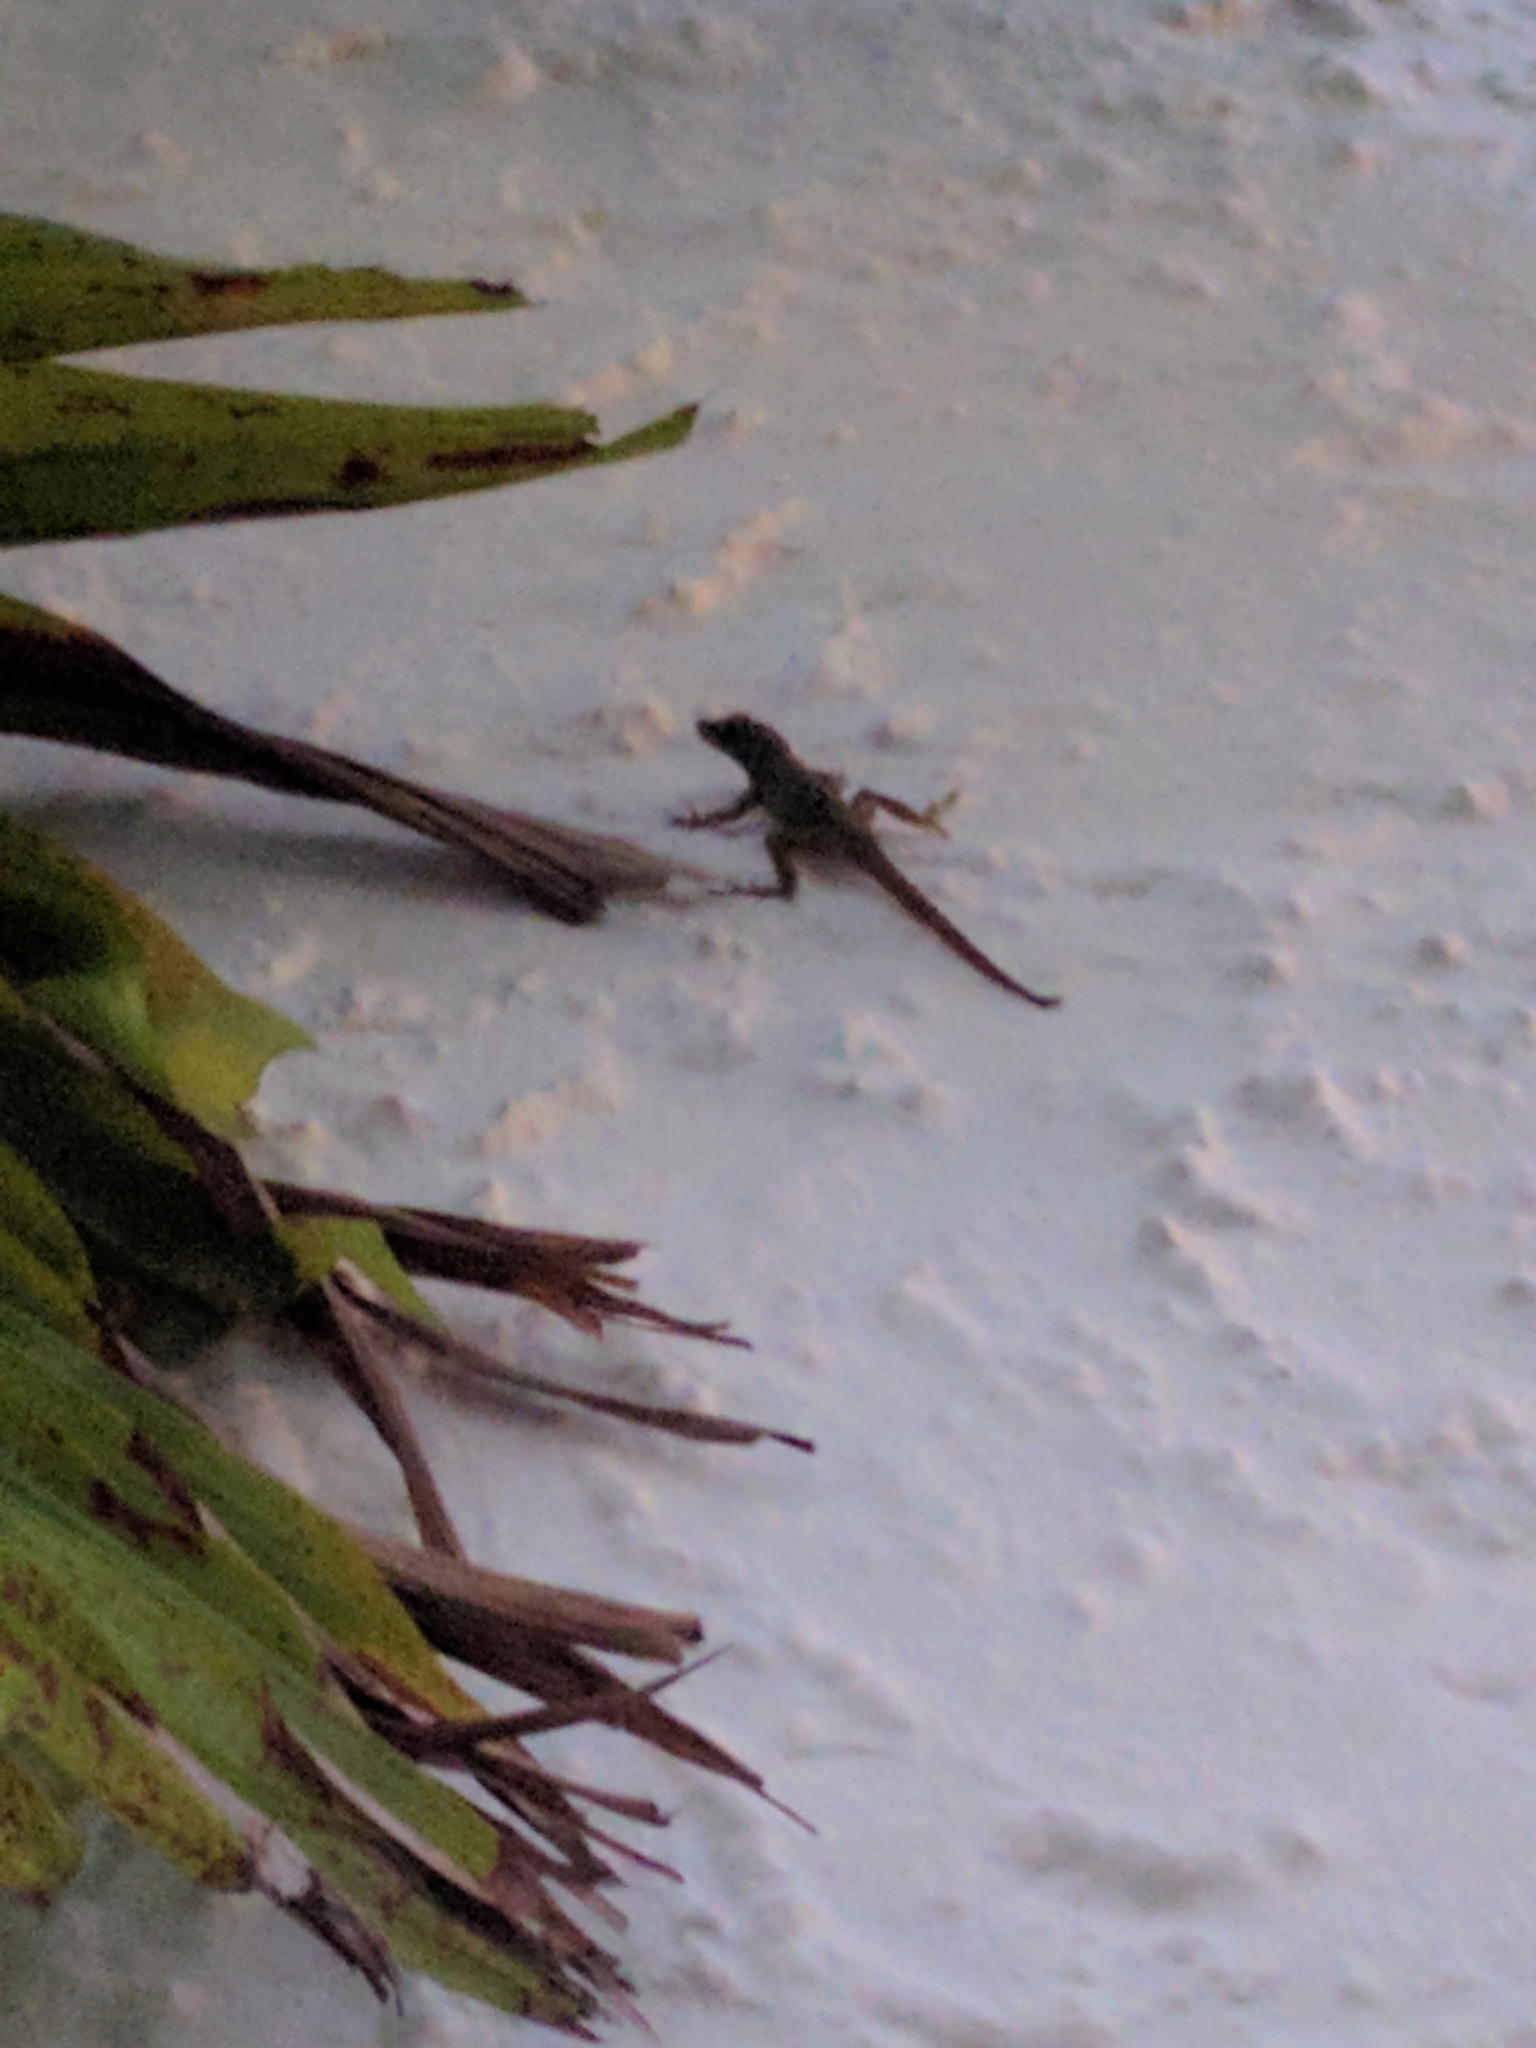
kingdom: Animalia
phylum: Chordata
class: Squamata
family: Dactyloidae
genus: Anolis
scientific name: Anolis distichus
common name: Bark anole
